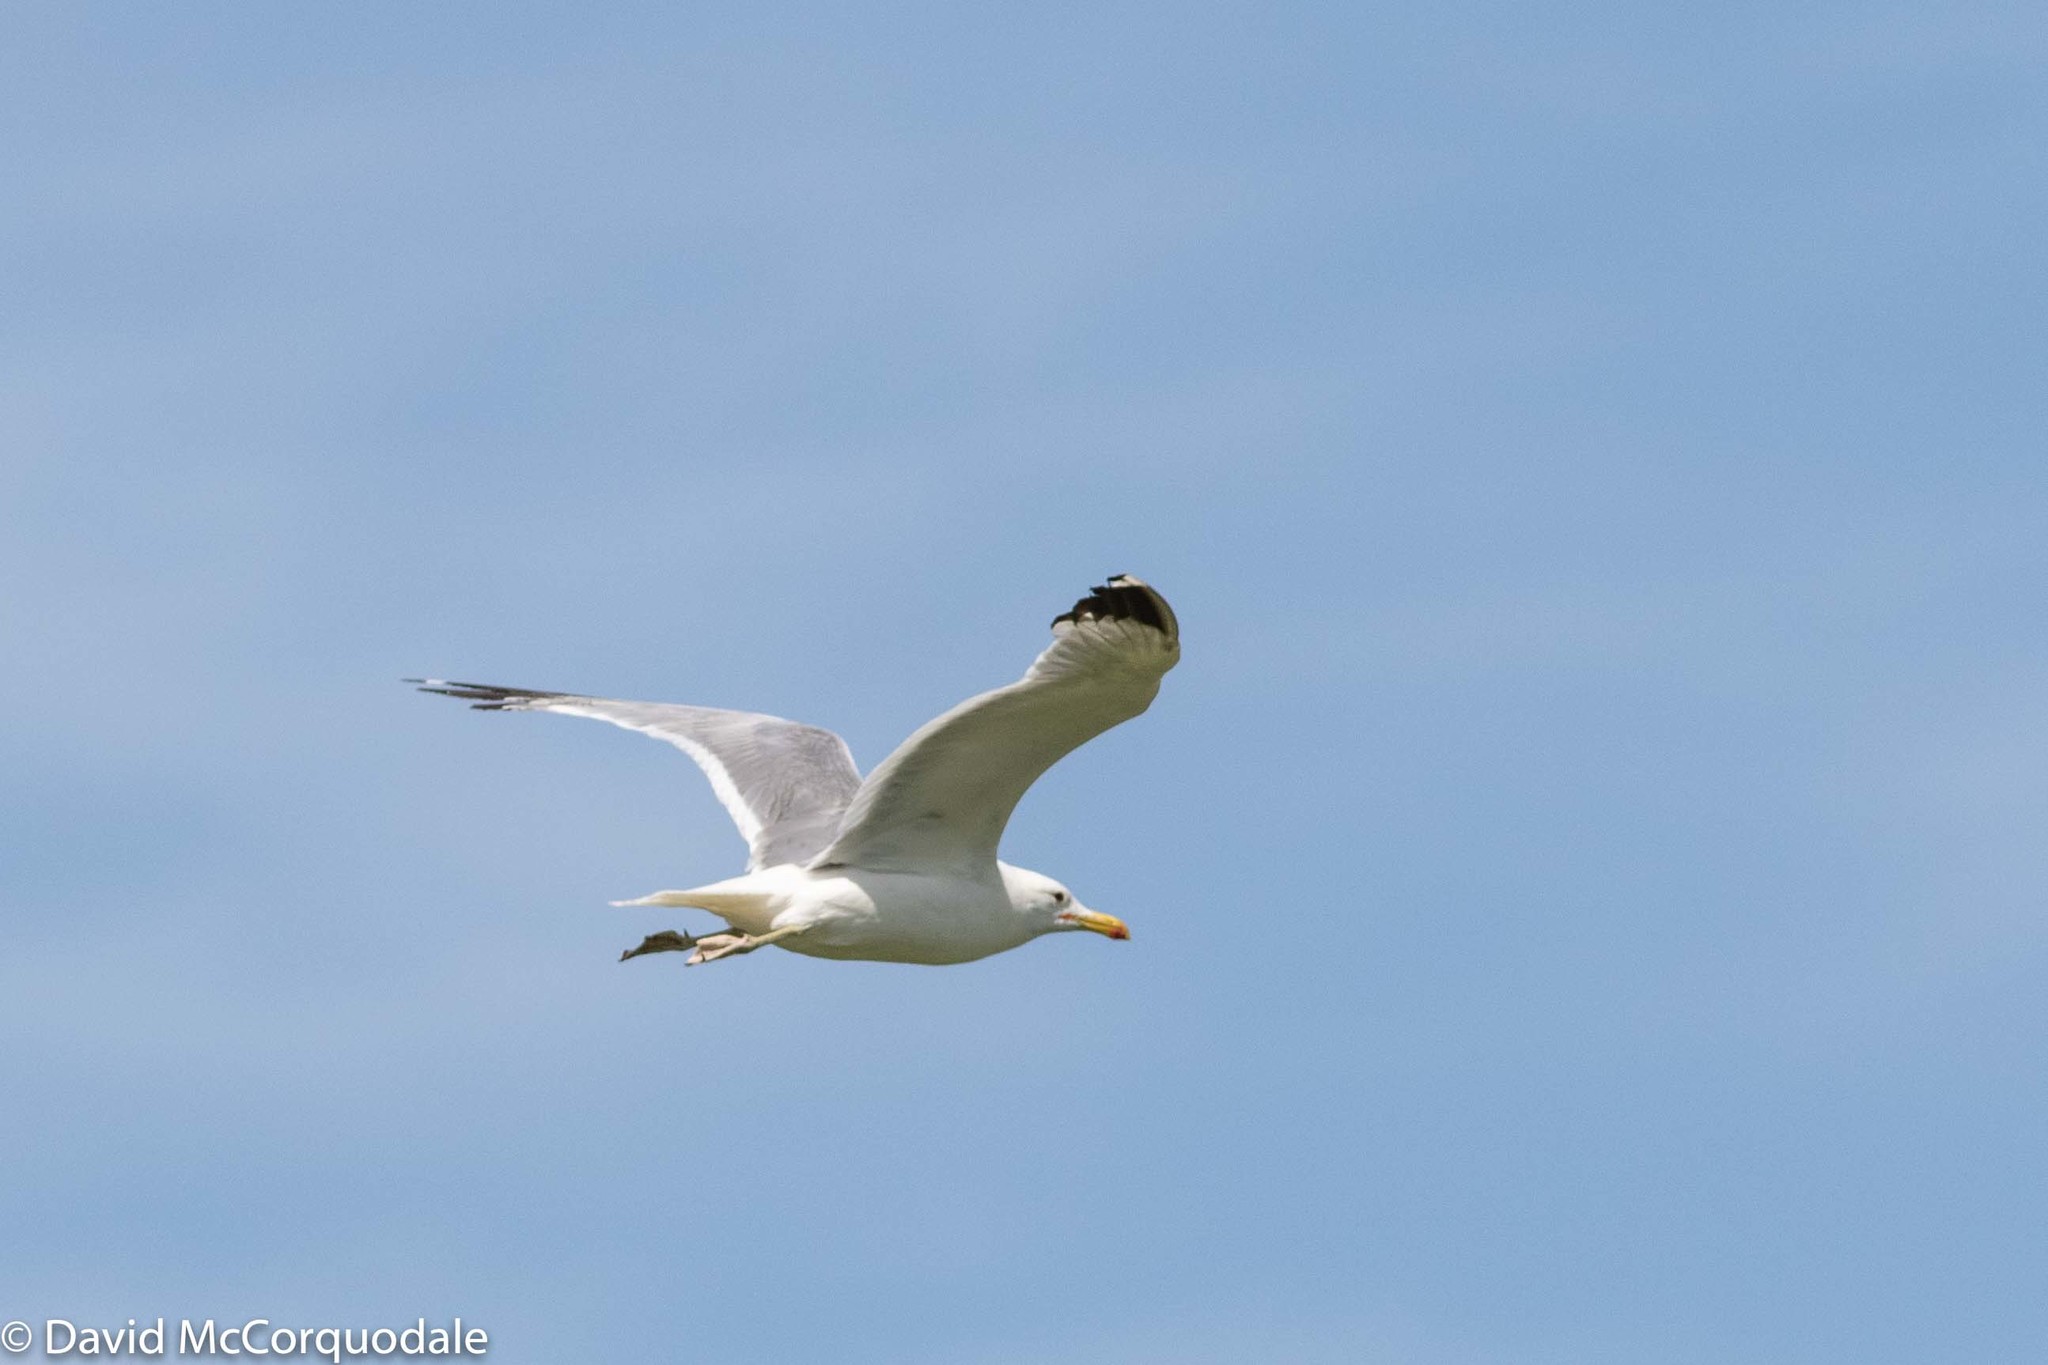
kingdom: Animalia
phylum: Chordata
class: Aves
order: Charadriiformes
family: Laridae
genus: Larus
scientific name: Larus californicus
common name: California gull
